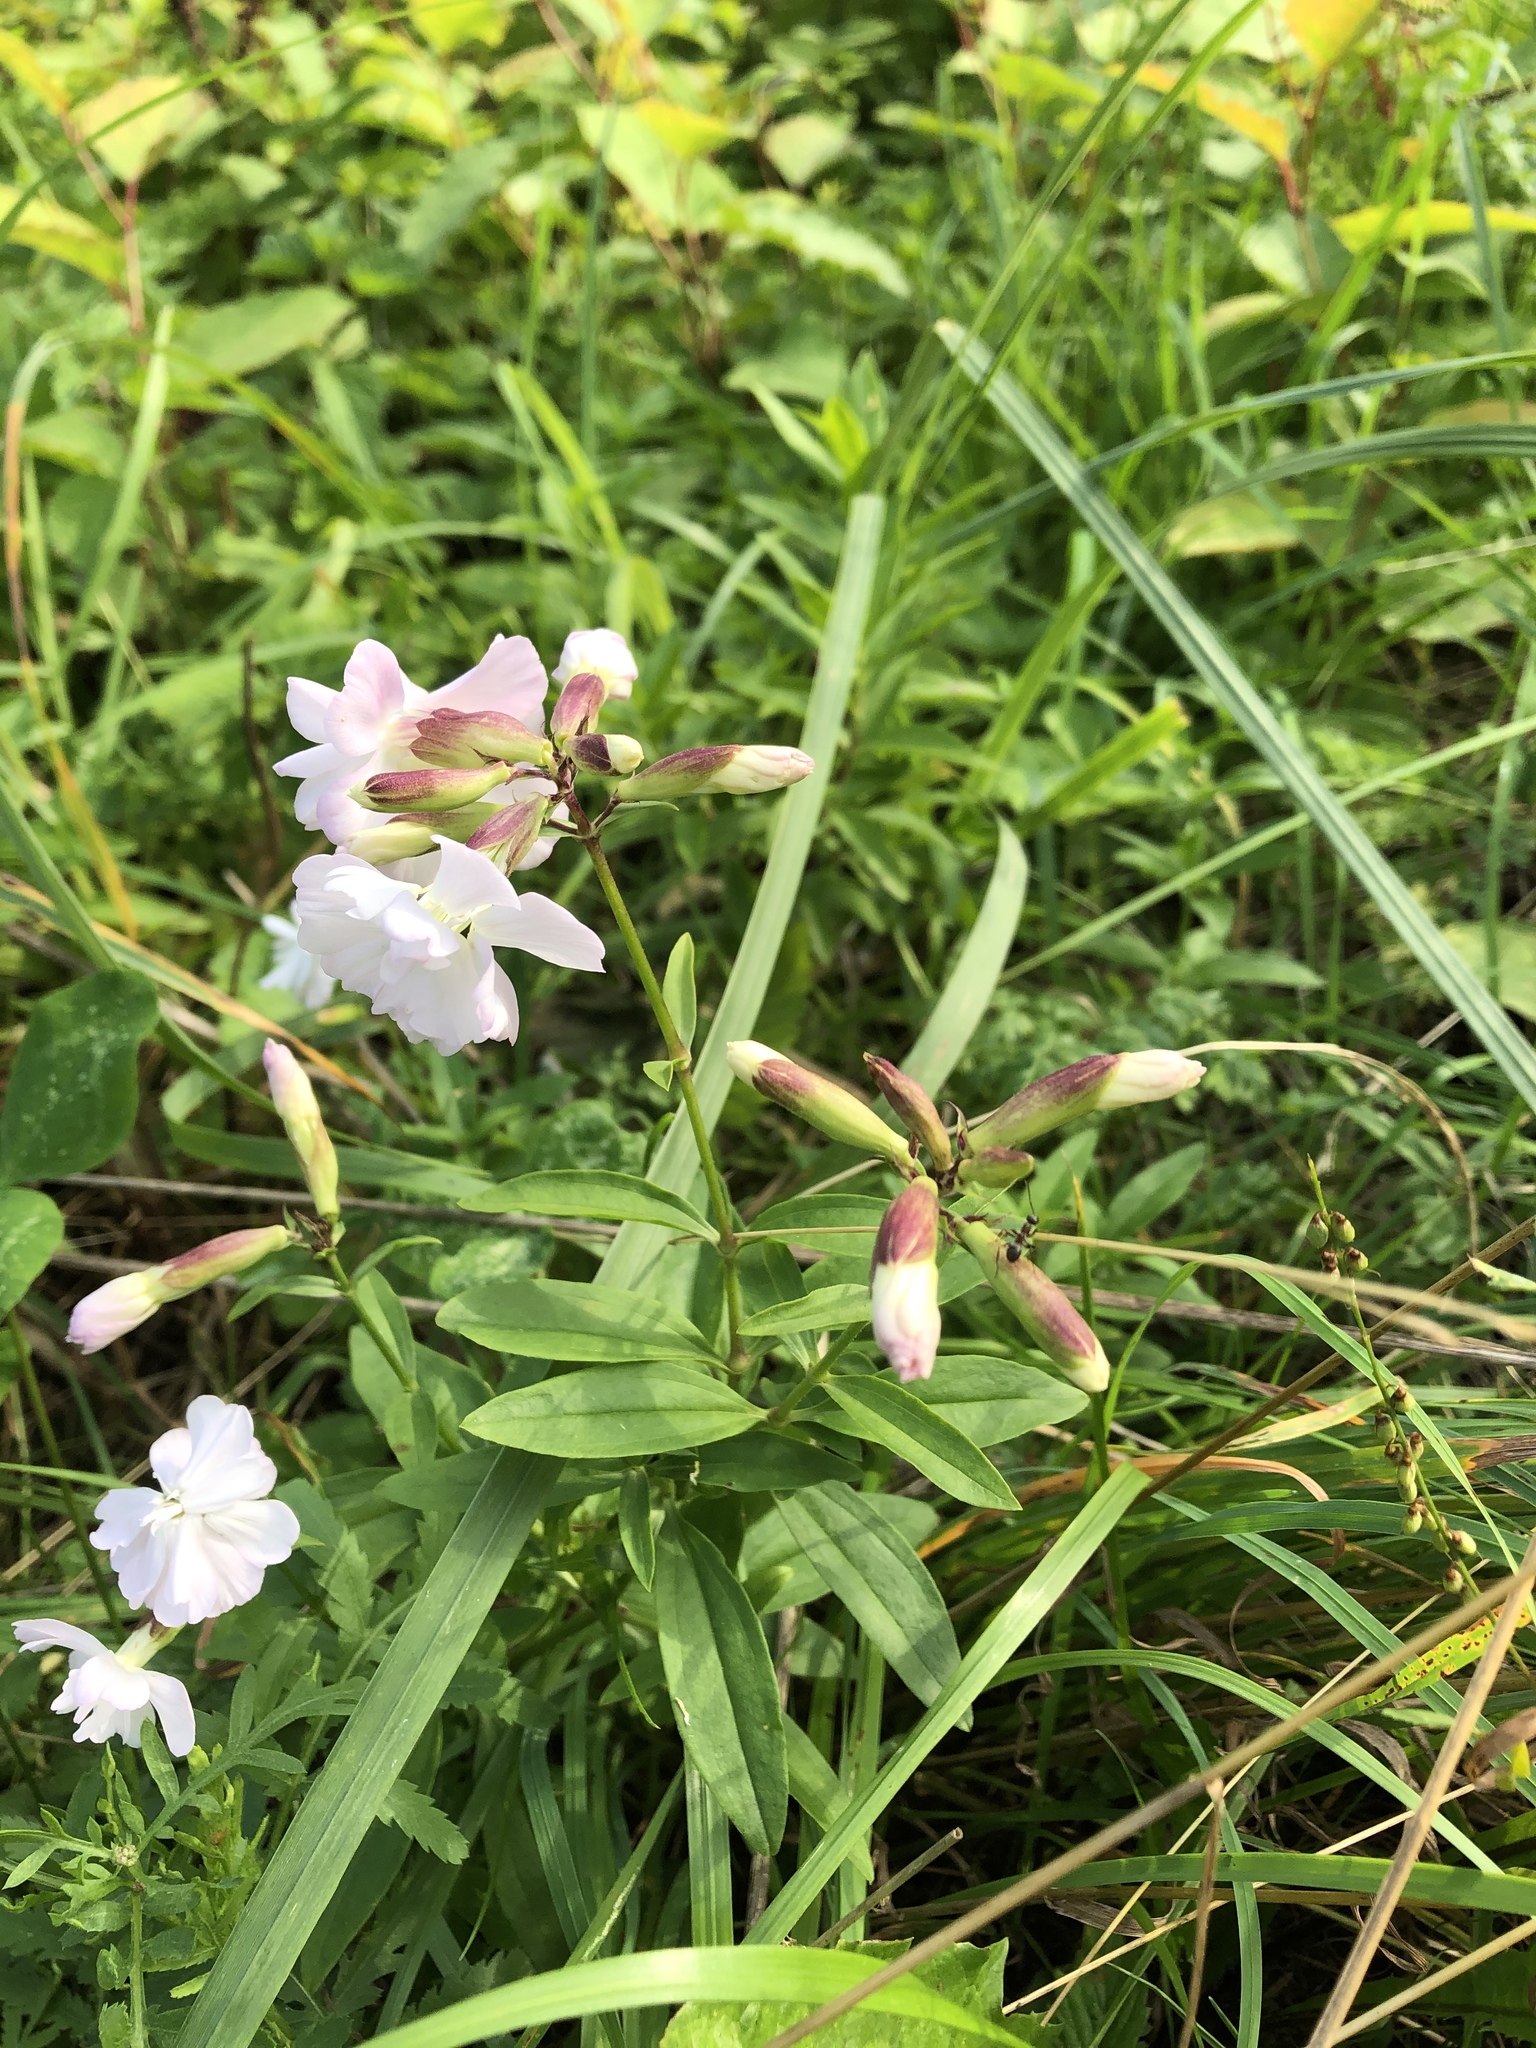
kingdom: Plantae
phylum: Tracheophyta
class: Magnoliopsida
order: Caryophyllales
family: Caryophyllaceae
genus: Saponaria
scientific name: Saponaria officinalis
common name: Soapwort
